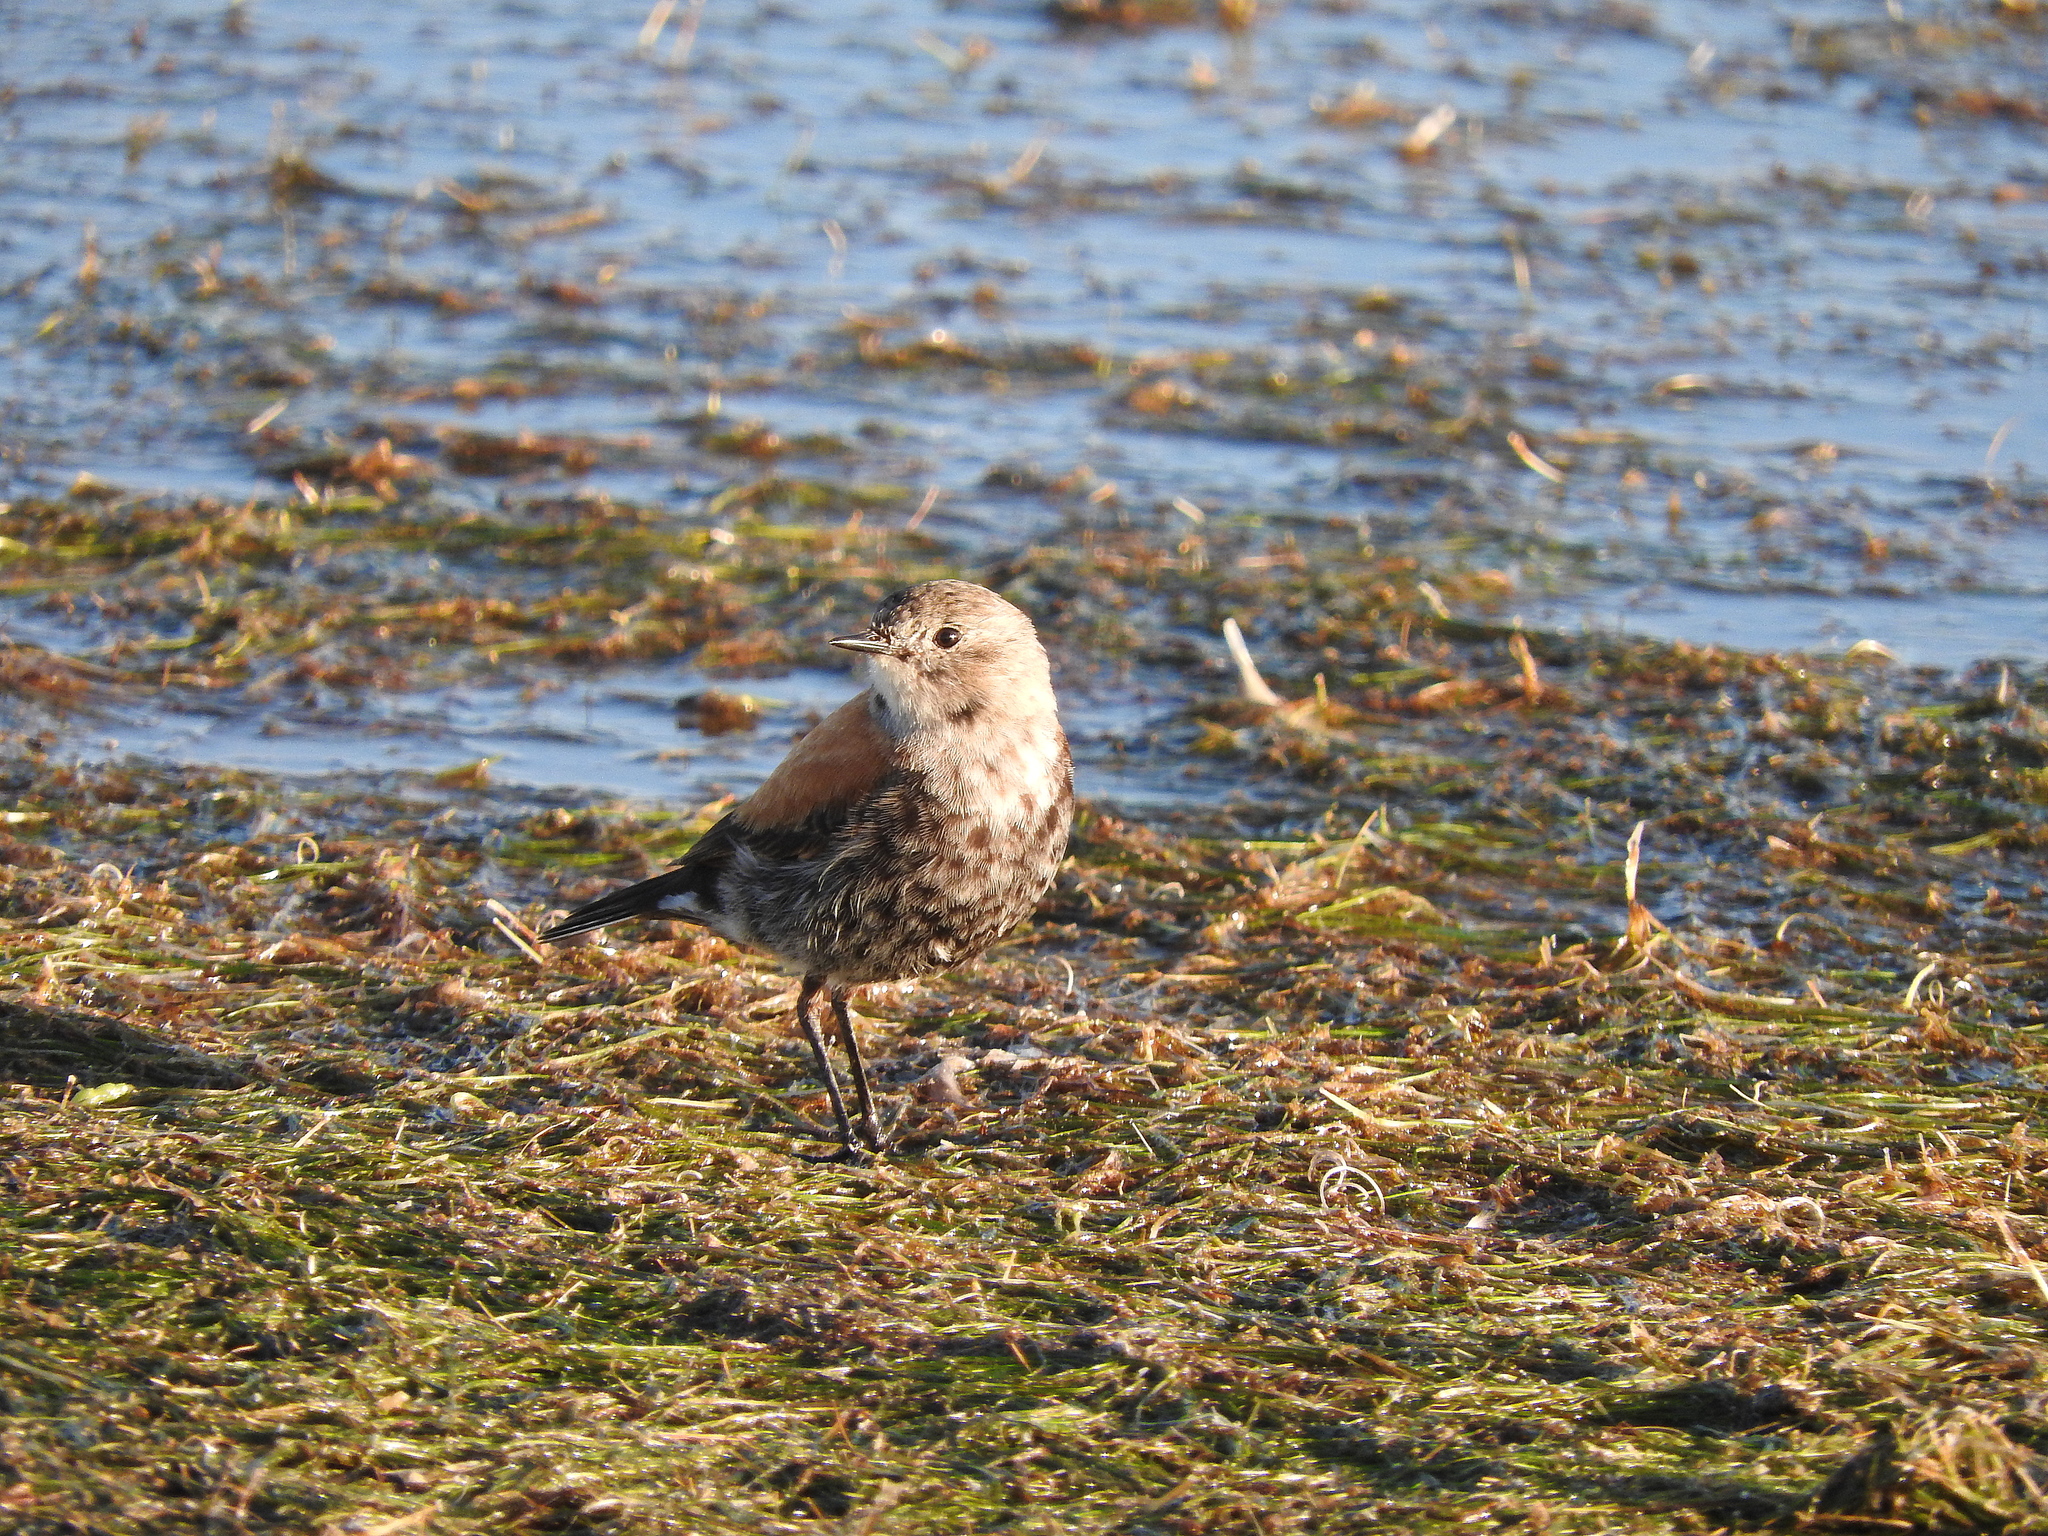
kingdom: Animalia
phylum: Chordata
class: Aves
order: Passeriformes
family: Tyrannidae
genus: Lessonia
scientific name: Lessonia rufa
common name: Austral negrito
